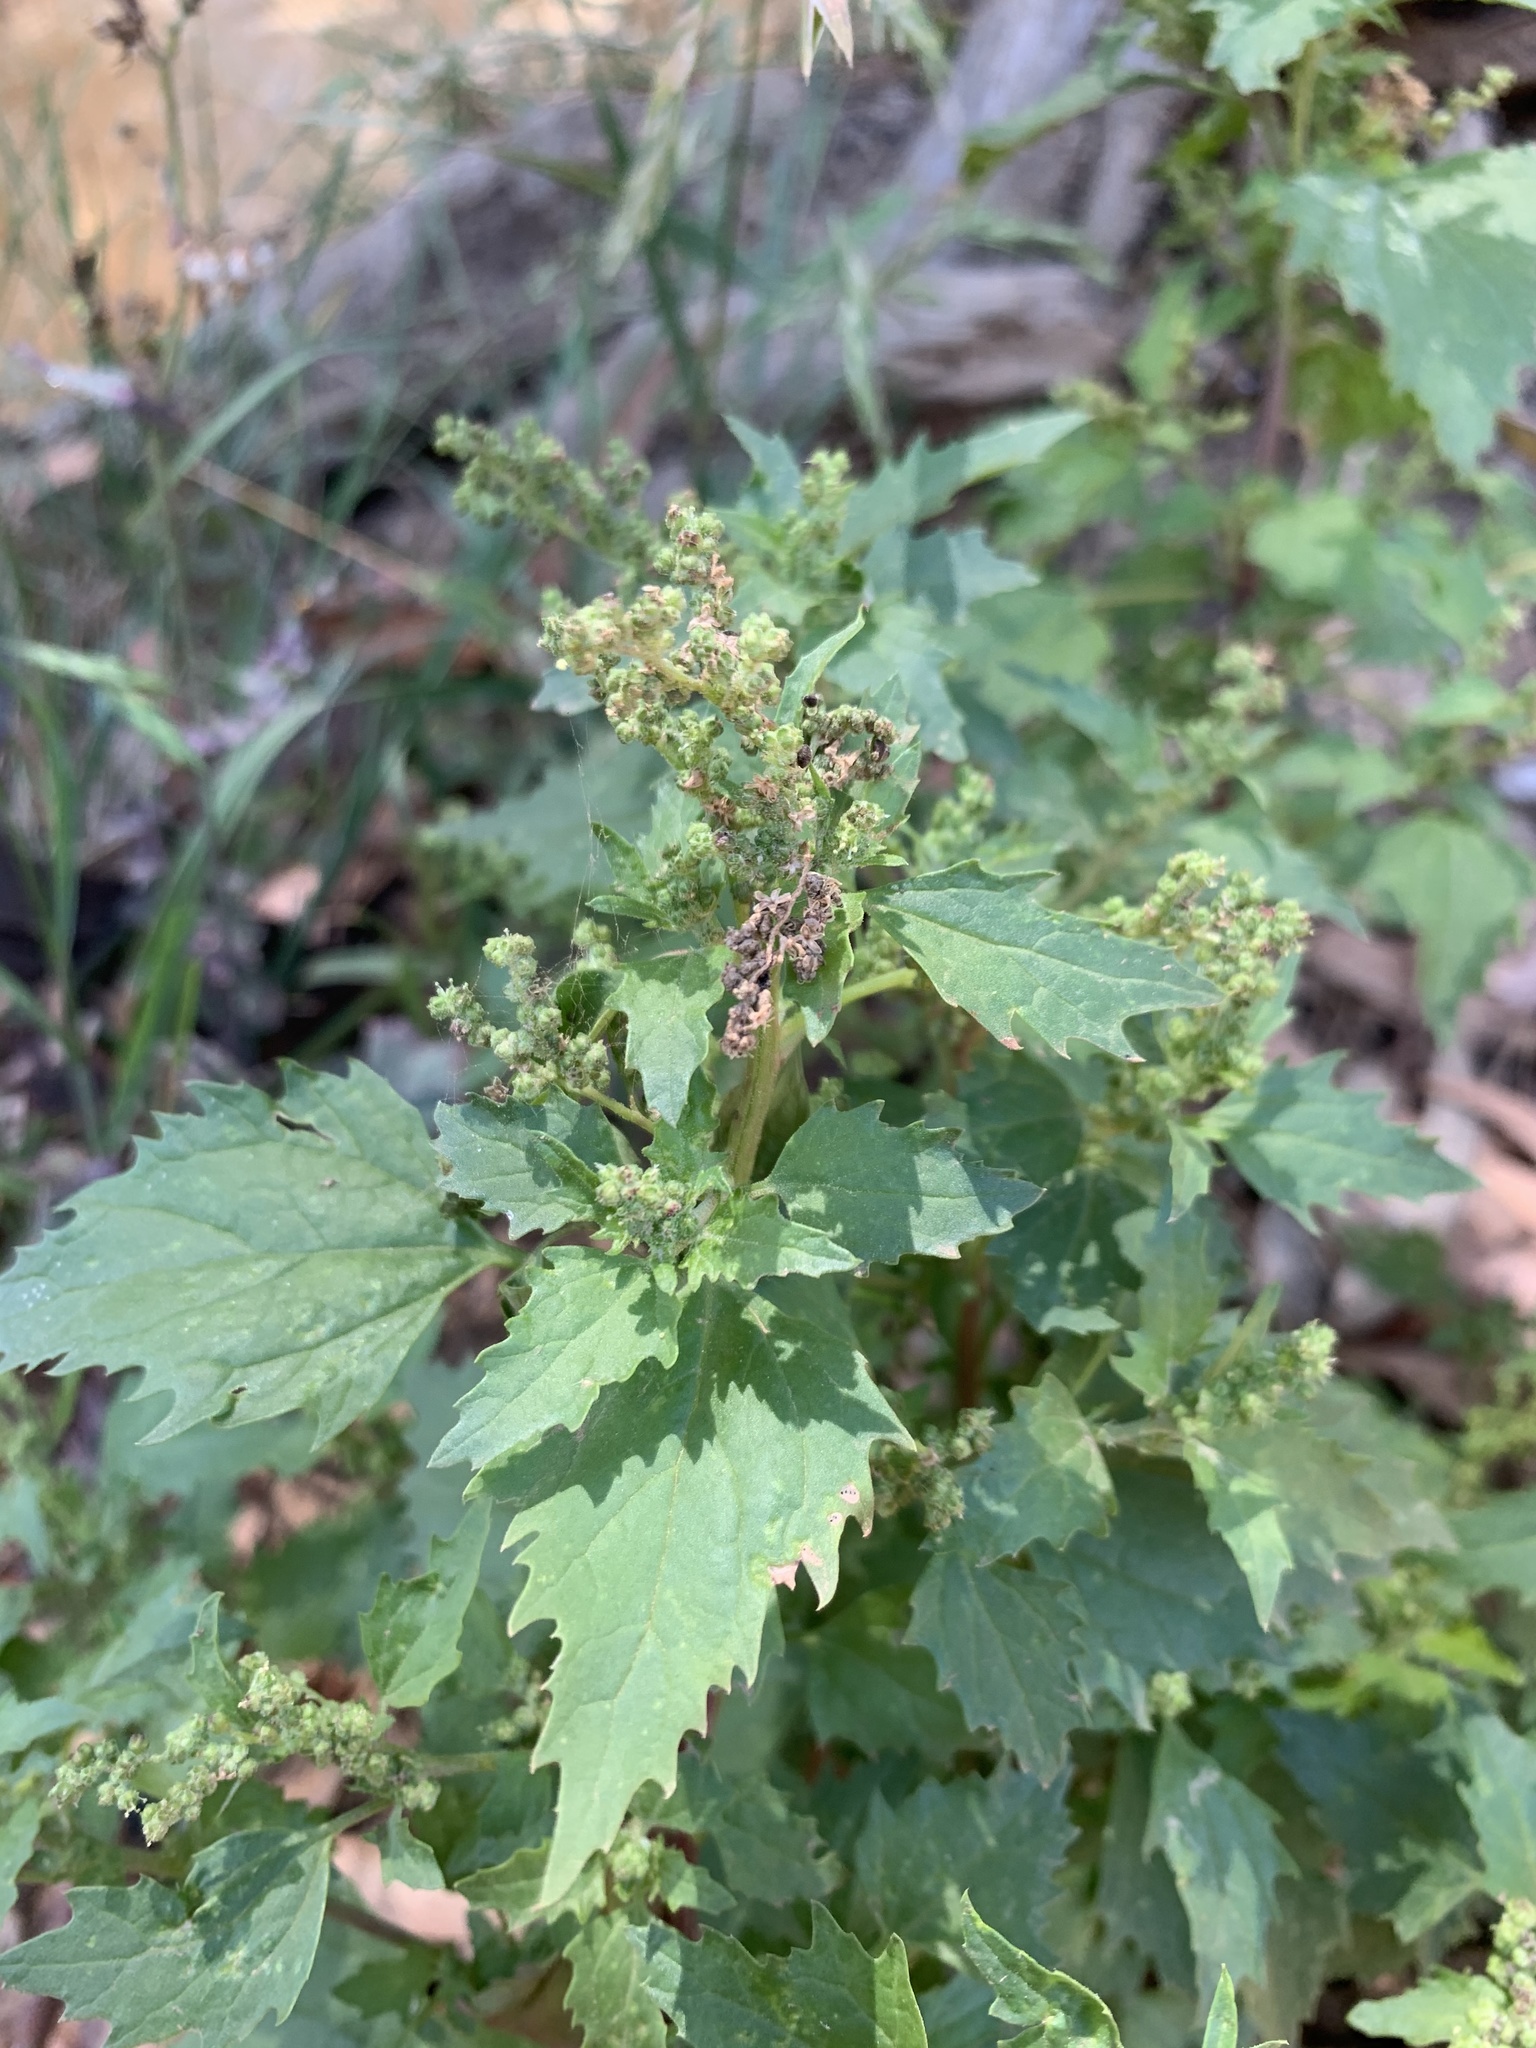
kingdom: Plantae
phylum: Tracheophyta
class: Magnoliopsida
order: Caryophyllales
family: Amaranthaceae
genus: Chenopodiastrum
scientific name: Chenopodiastrum murale
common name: Sowbane
